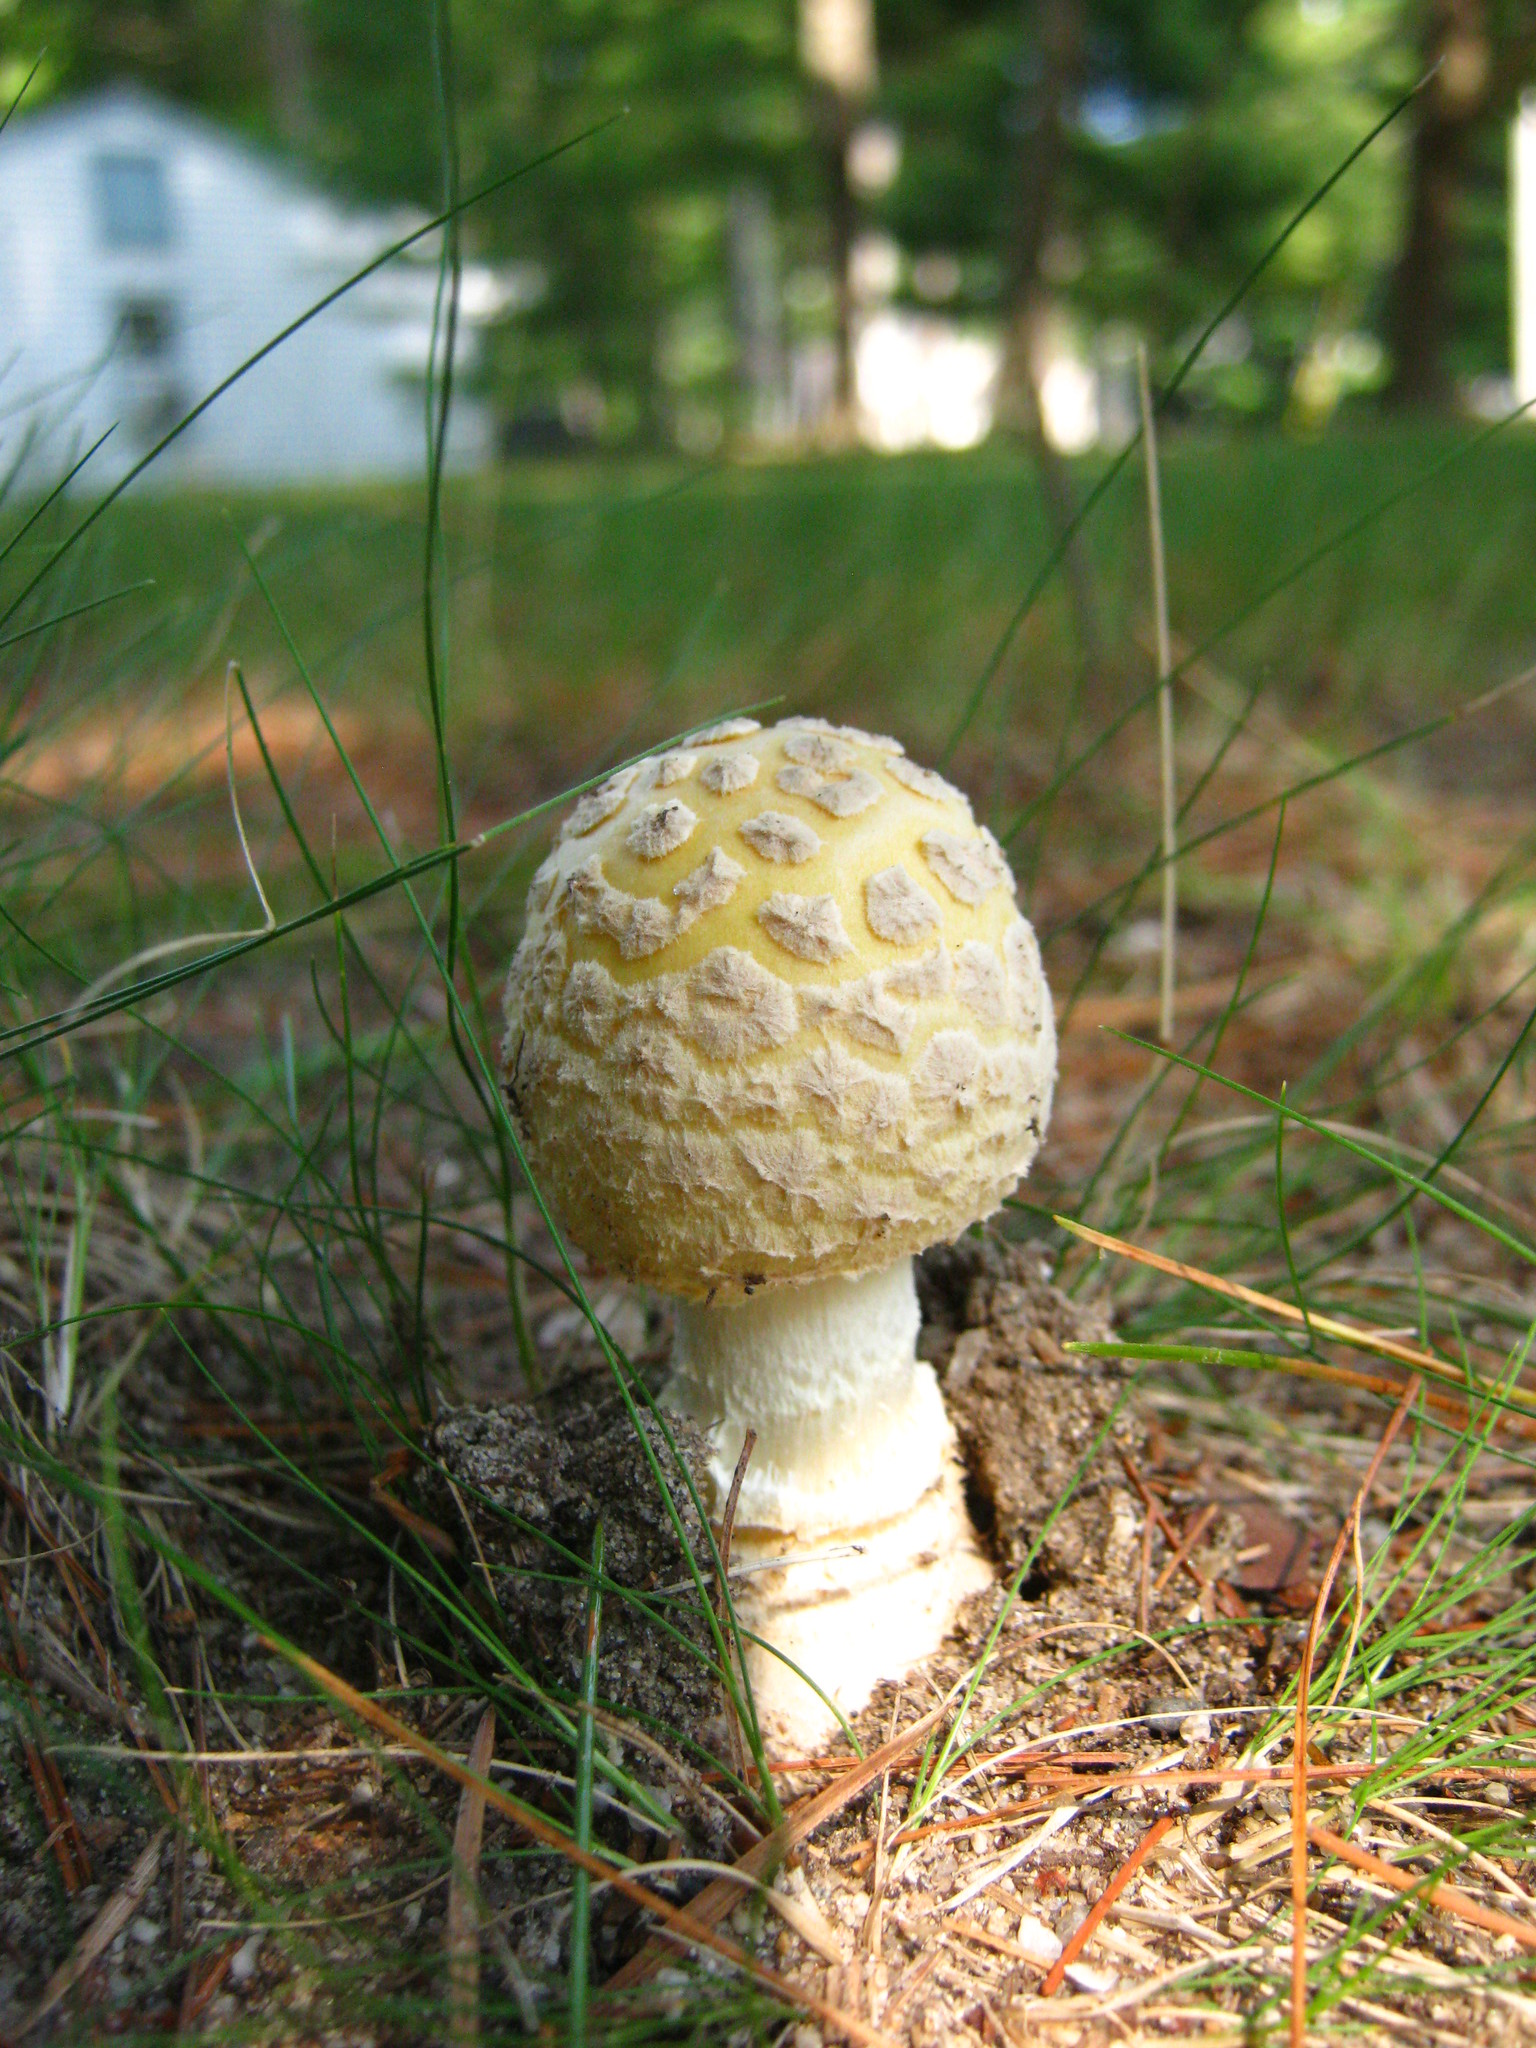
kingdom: Fungi
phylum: Basidiomycota
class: Agaricomycetes
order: Agaricales
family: Amanitaceae
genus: Amanita
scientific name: Amanita muscaria
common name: Fly agaric
